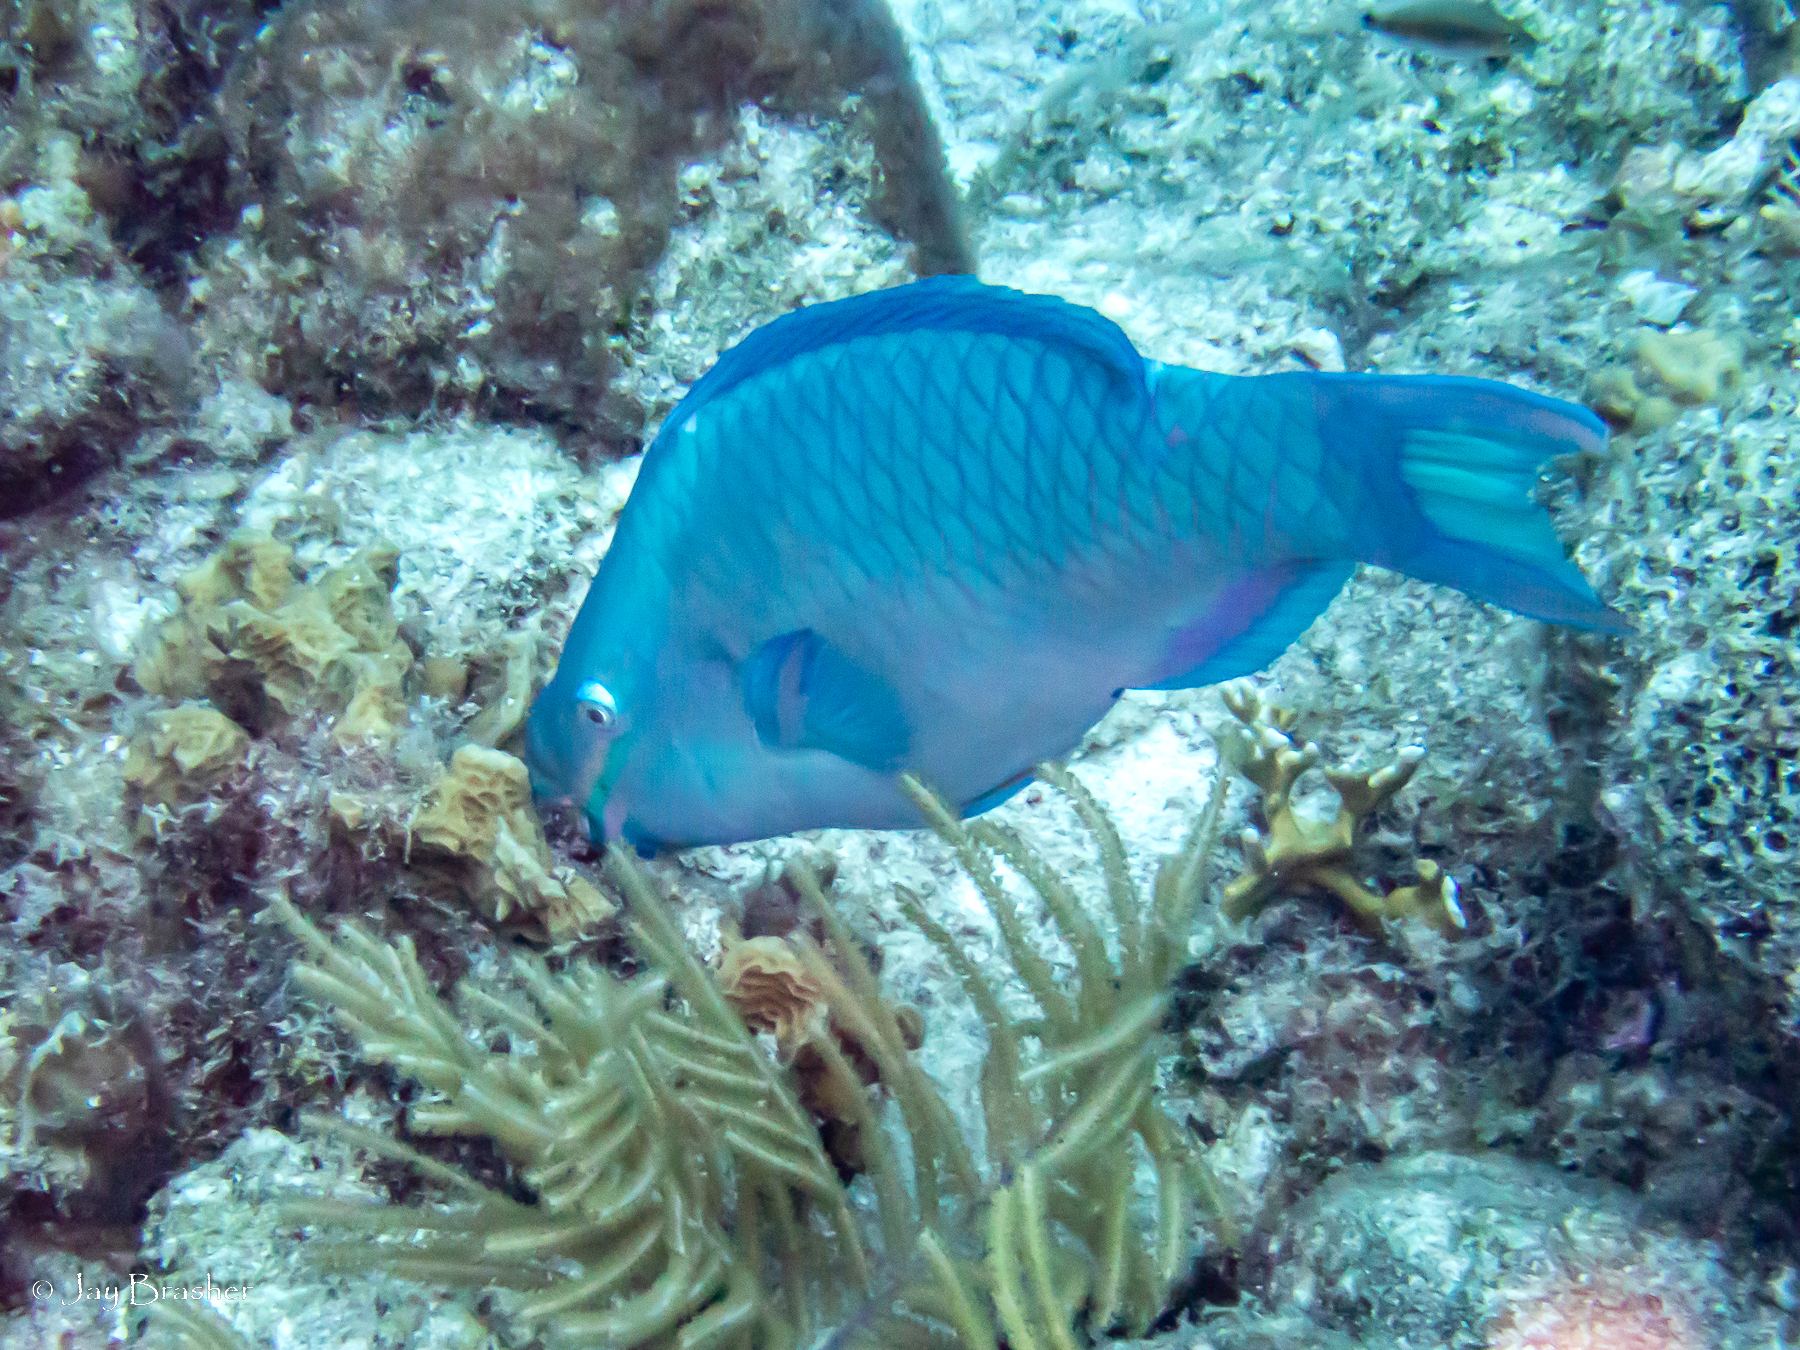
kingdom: Animalia
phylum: Chordata
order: Perciformes
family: Scaridae
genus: Scarus
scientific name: Scarus vetula
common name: Queen parrotfish
